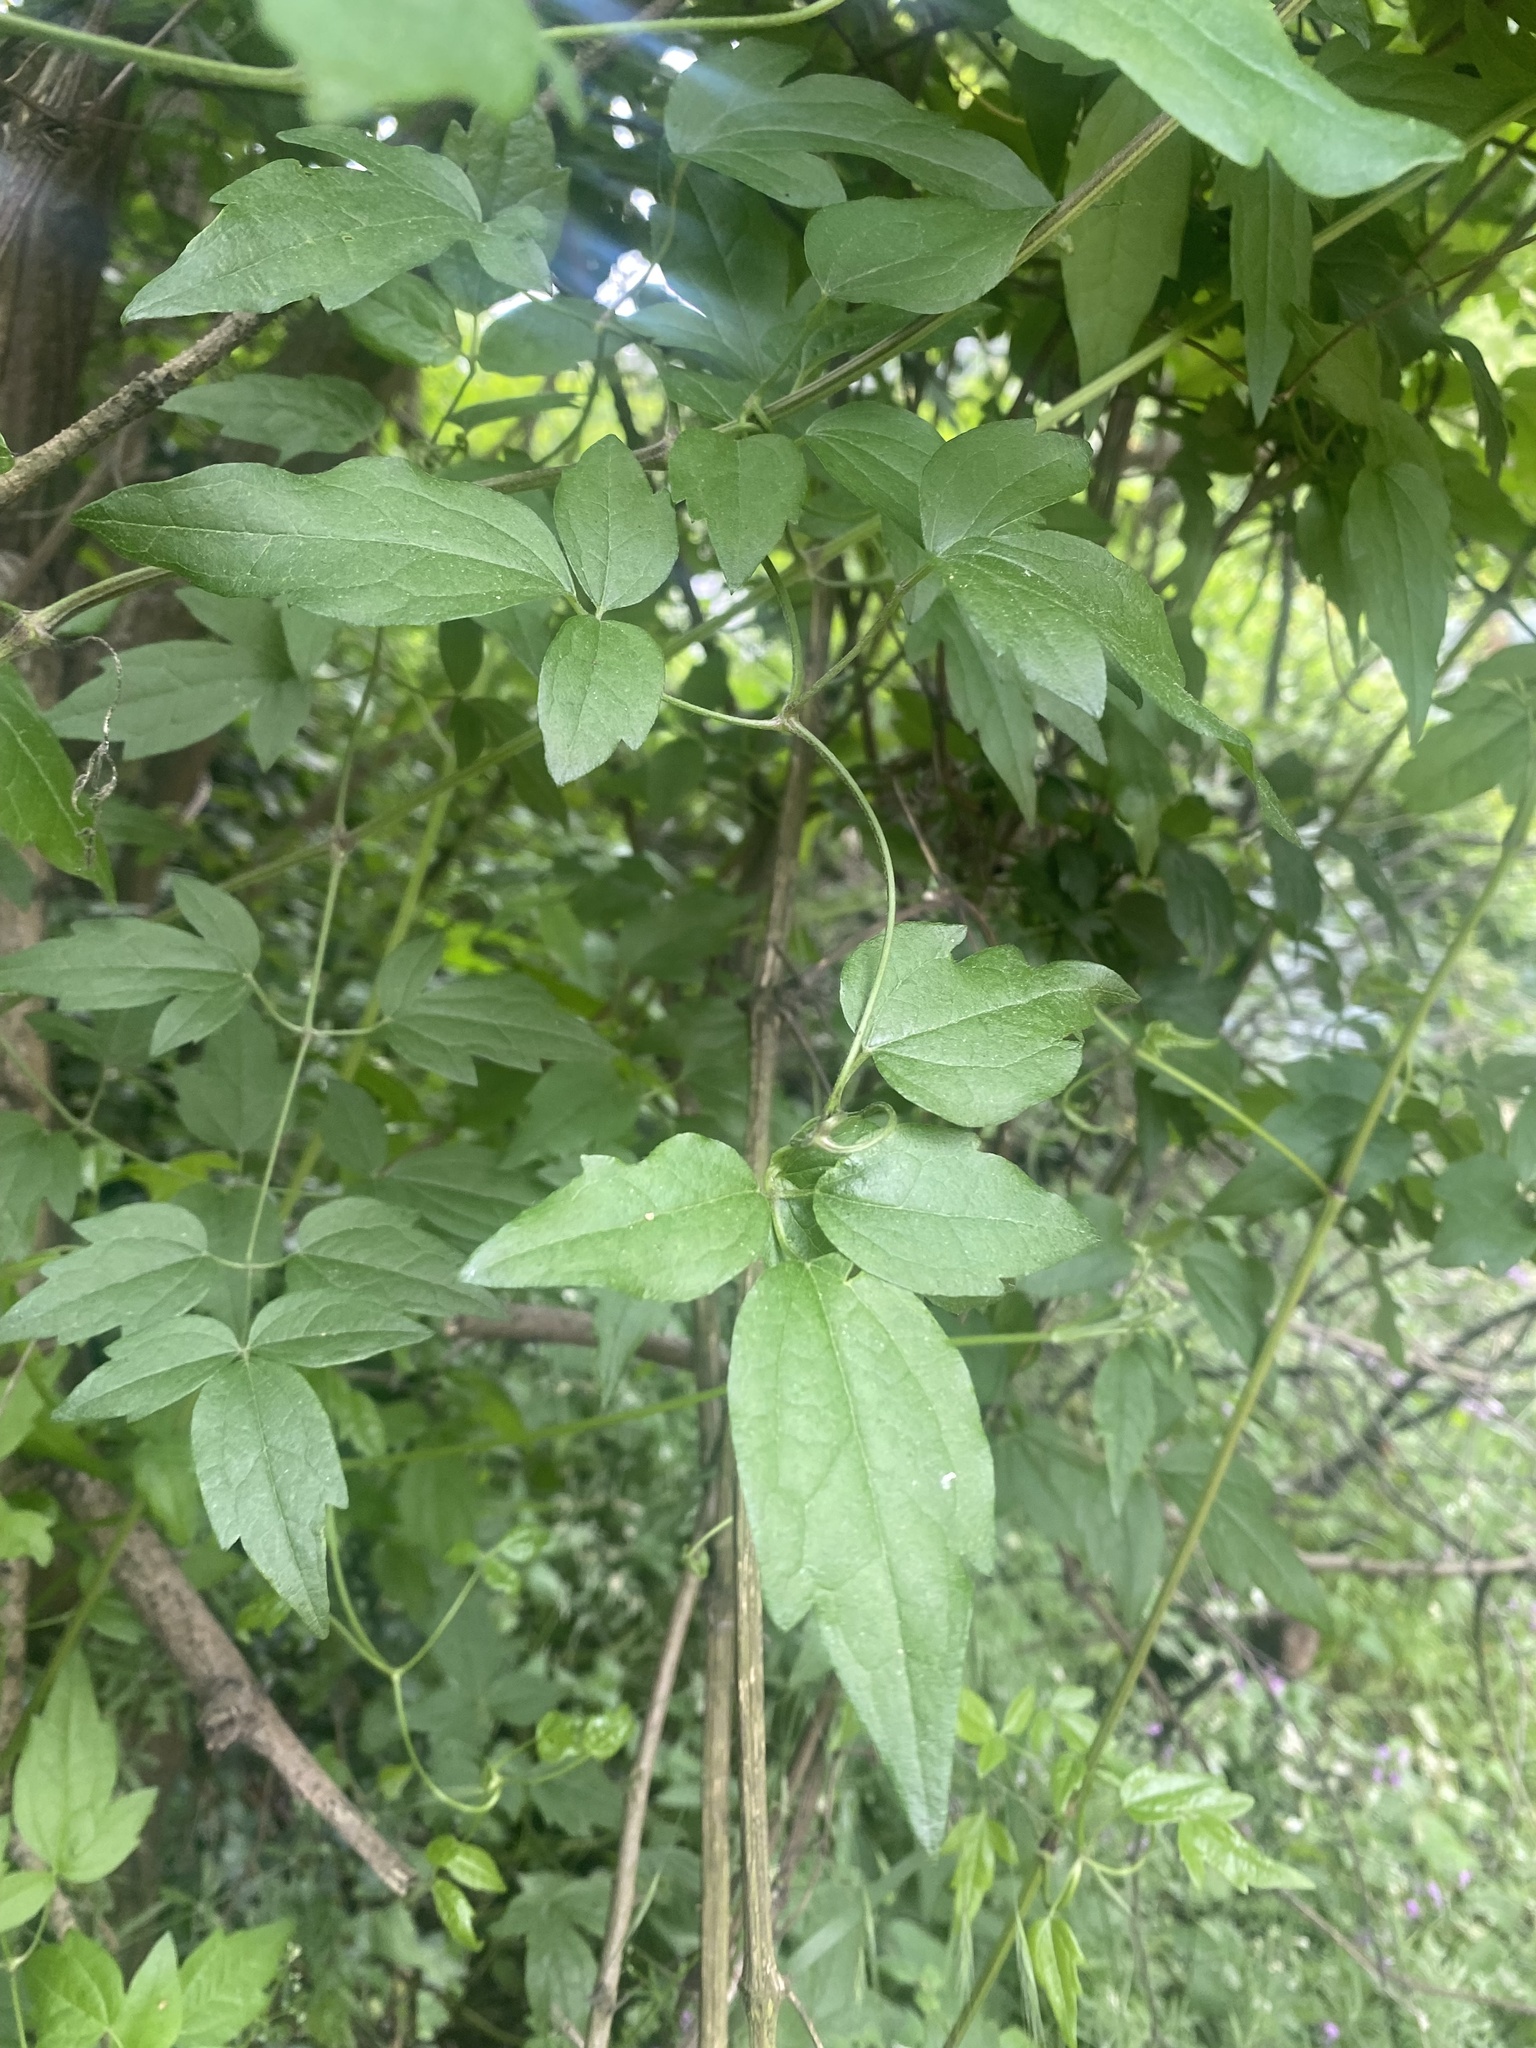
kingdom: Plantae
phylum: Tracheophyta
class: Magnoliopsida
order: Ranunculales
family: Ranunculaceae
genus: Clematis
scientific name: Clematis vitalba
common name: Evergreen clematis
